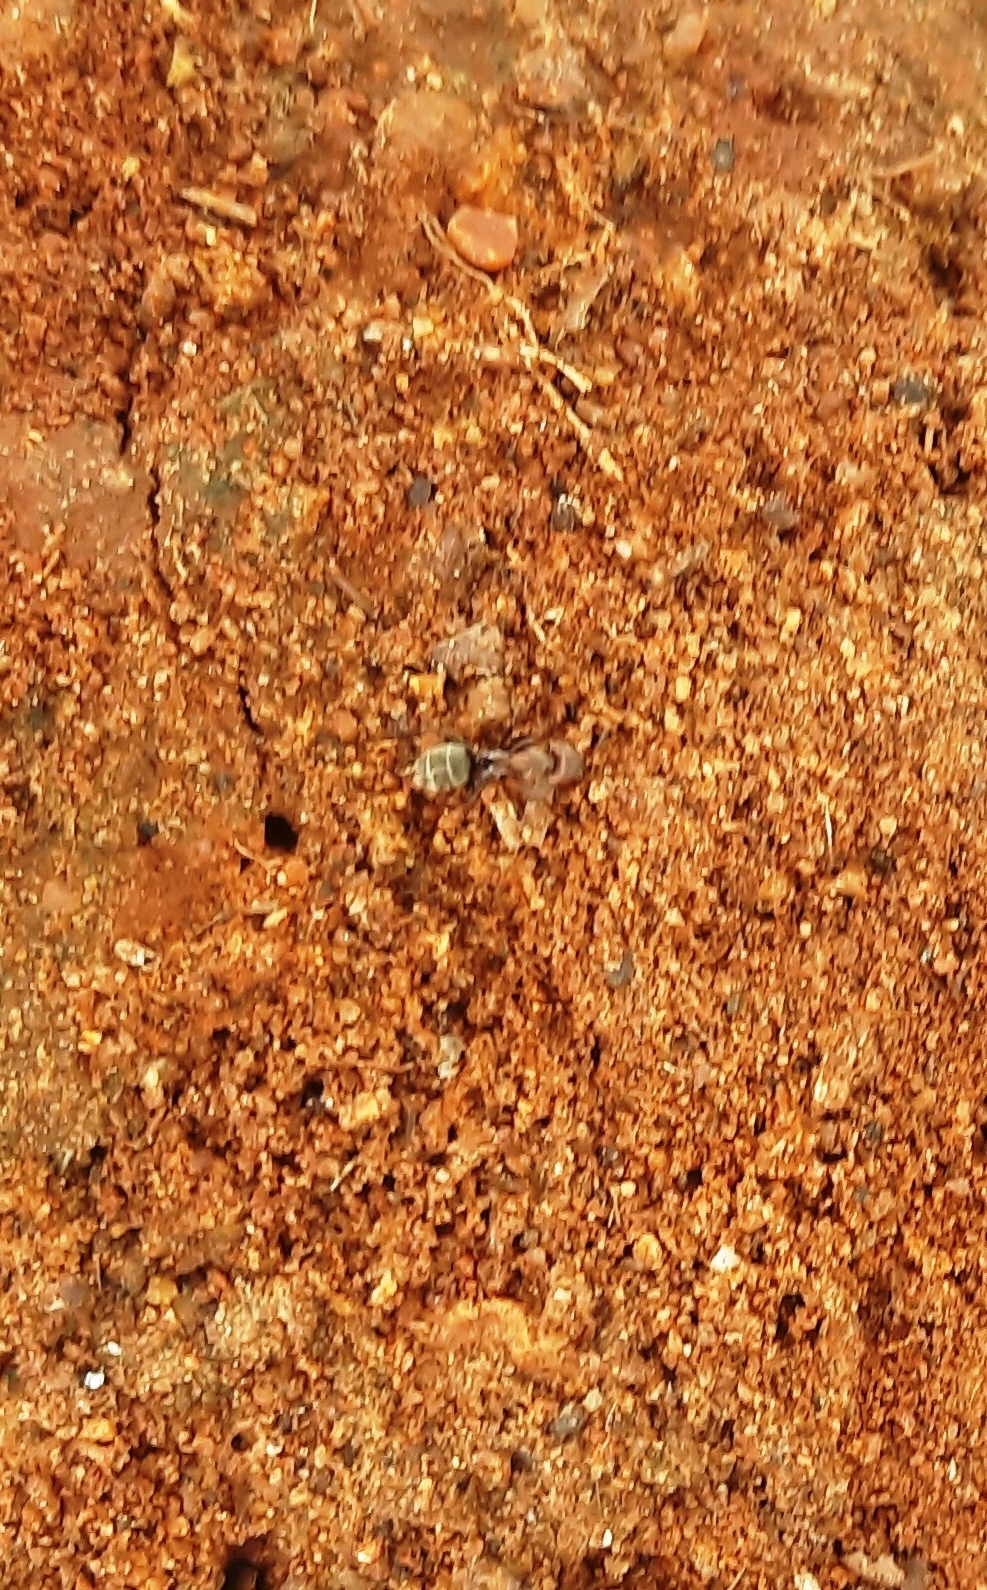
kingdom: Animalia
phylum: Arthropoda
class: Insecta
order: Hymenoptera
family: Formicidae
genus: Camponotus
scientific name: Camponotus rufoglaucus
